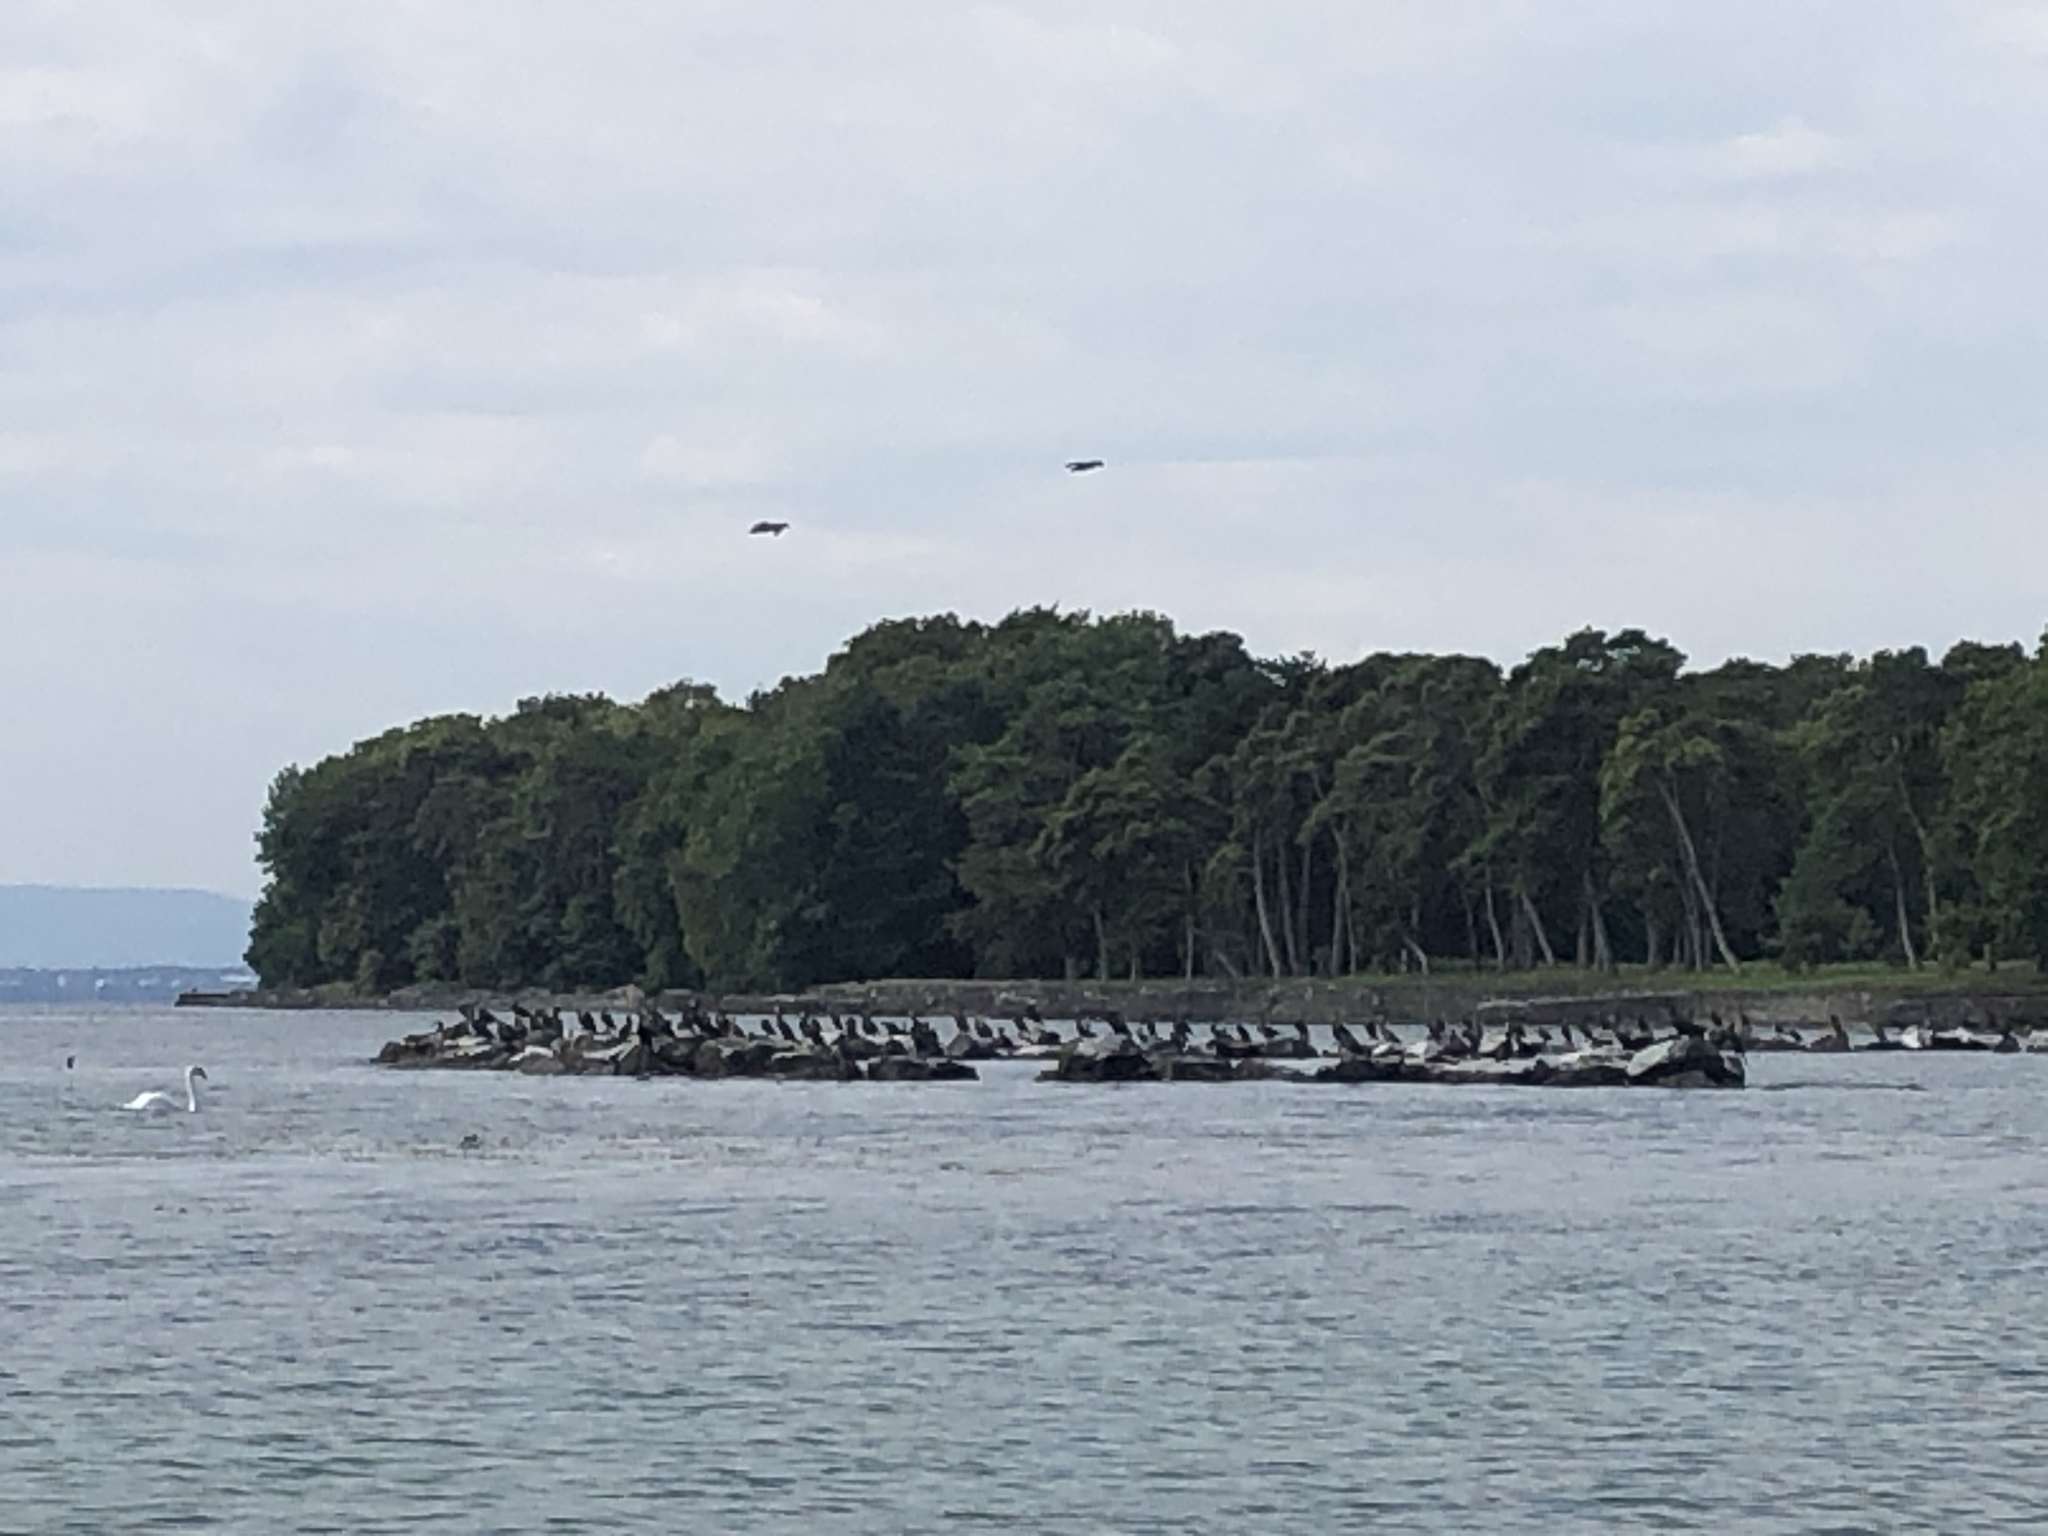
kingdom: Animalia
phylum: Chordata
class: Aves
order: Suliformes
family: Phalacrocoracidae
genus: Phalacrocorax
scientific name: Phalacrocorax carbo
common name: Great cormorant
